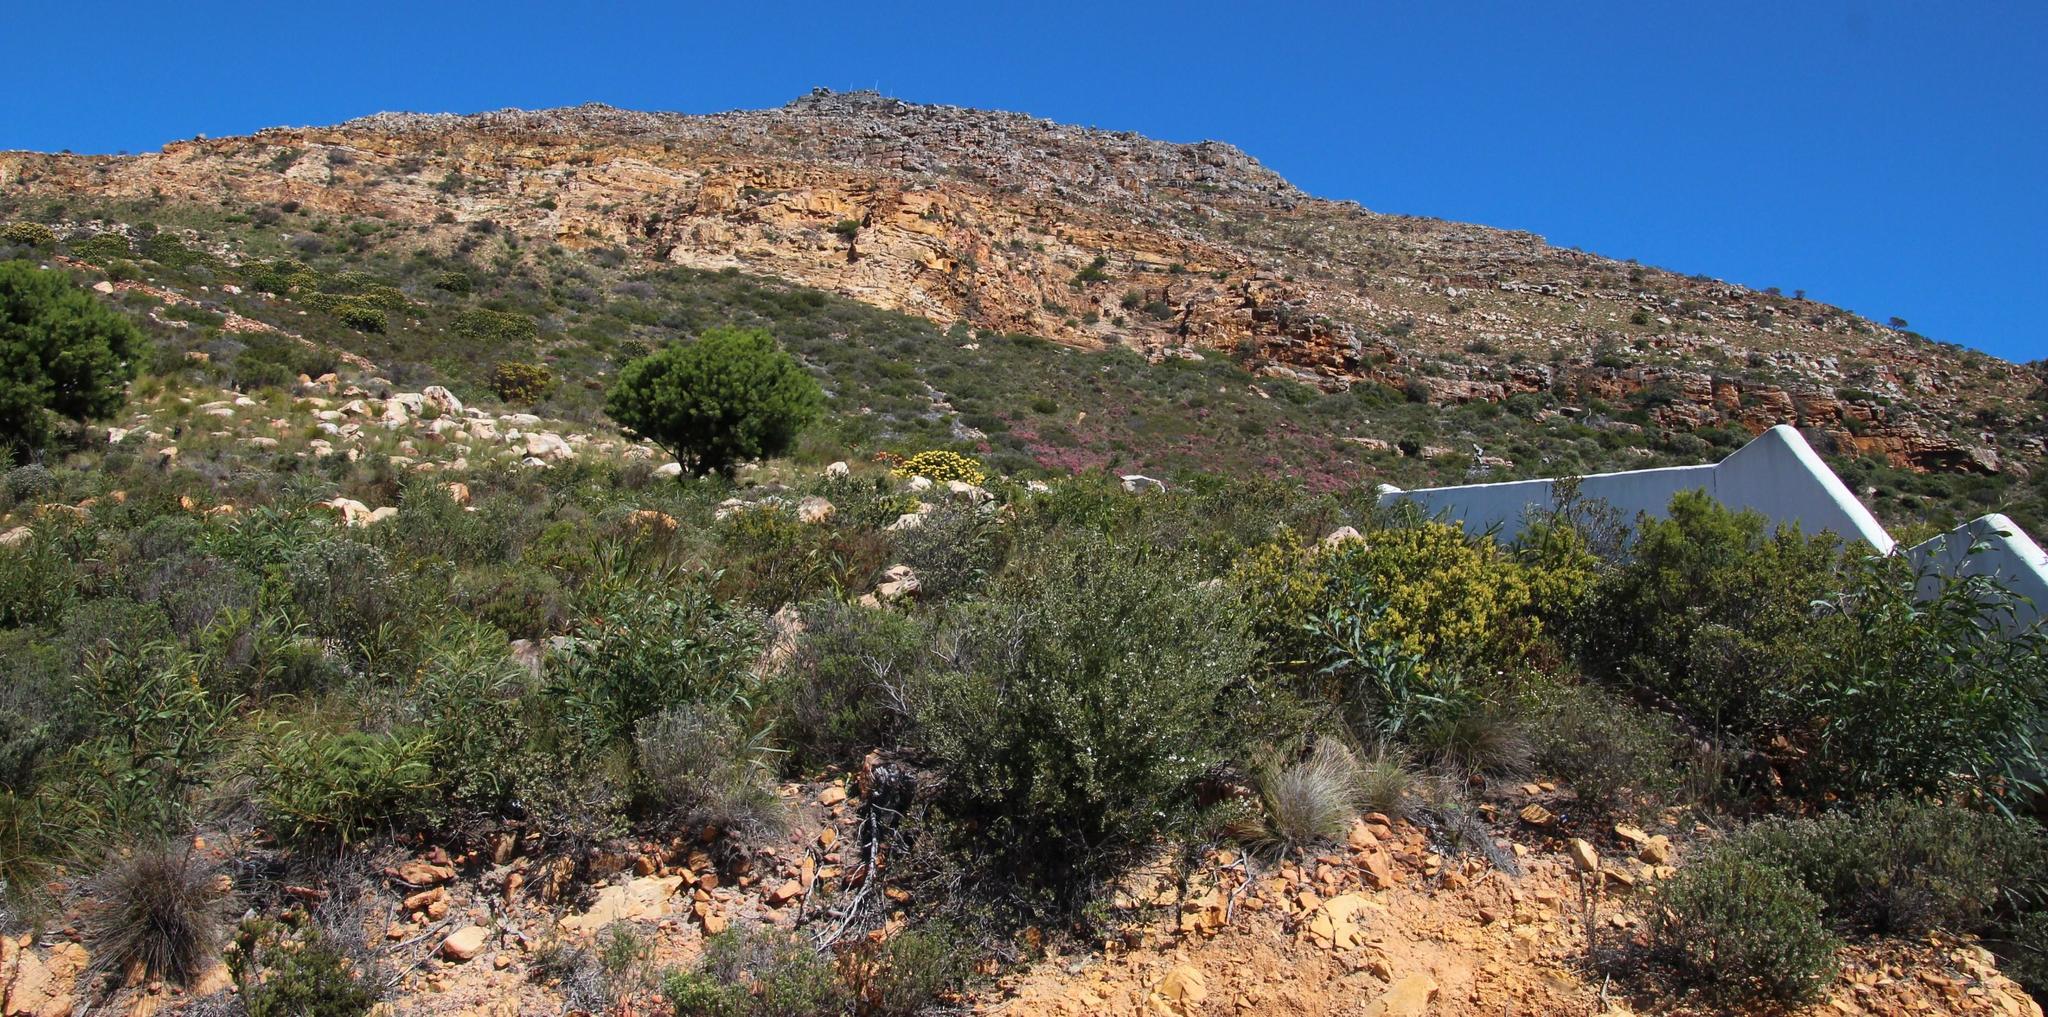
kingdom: Plantae
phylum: Tracheophyta
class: Magnoliopsida
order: Ericales
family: Ericaceae
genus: Erica
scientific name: Erica baccans
